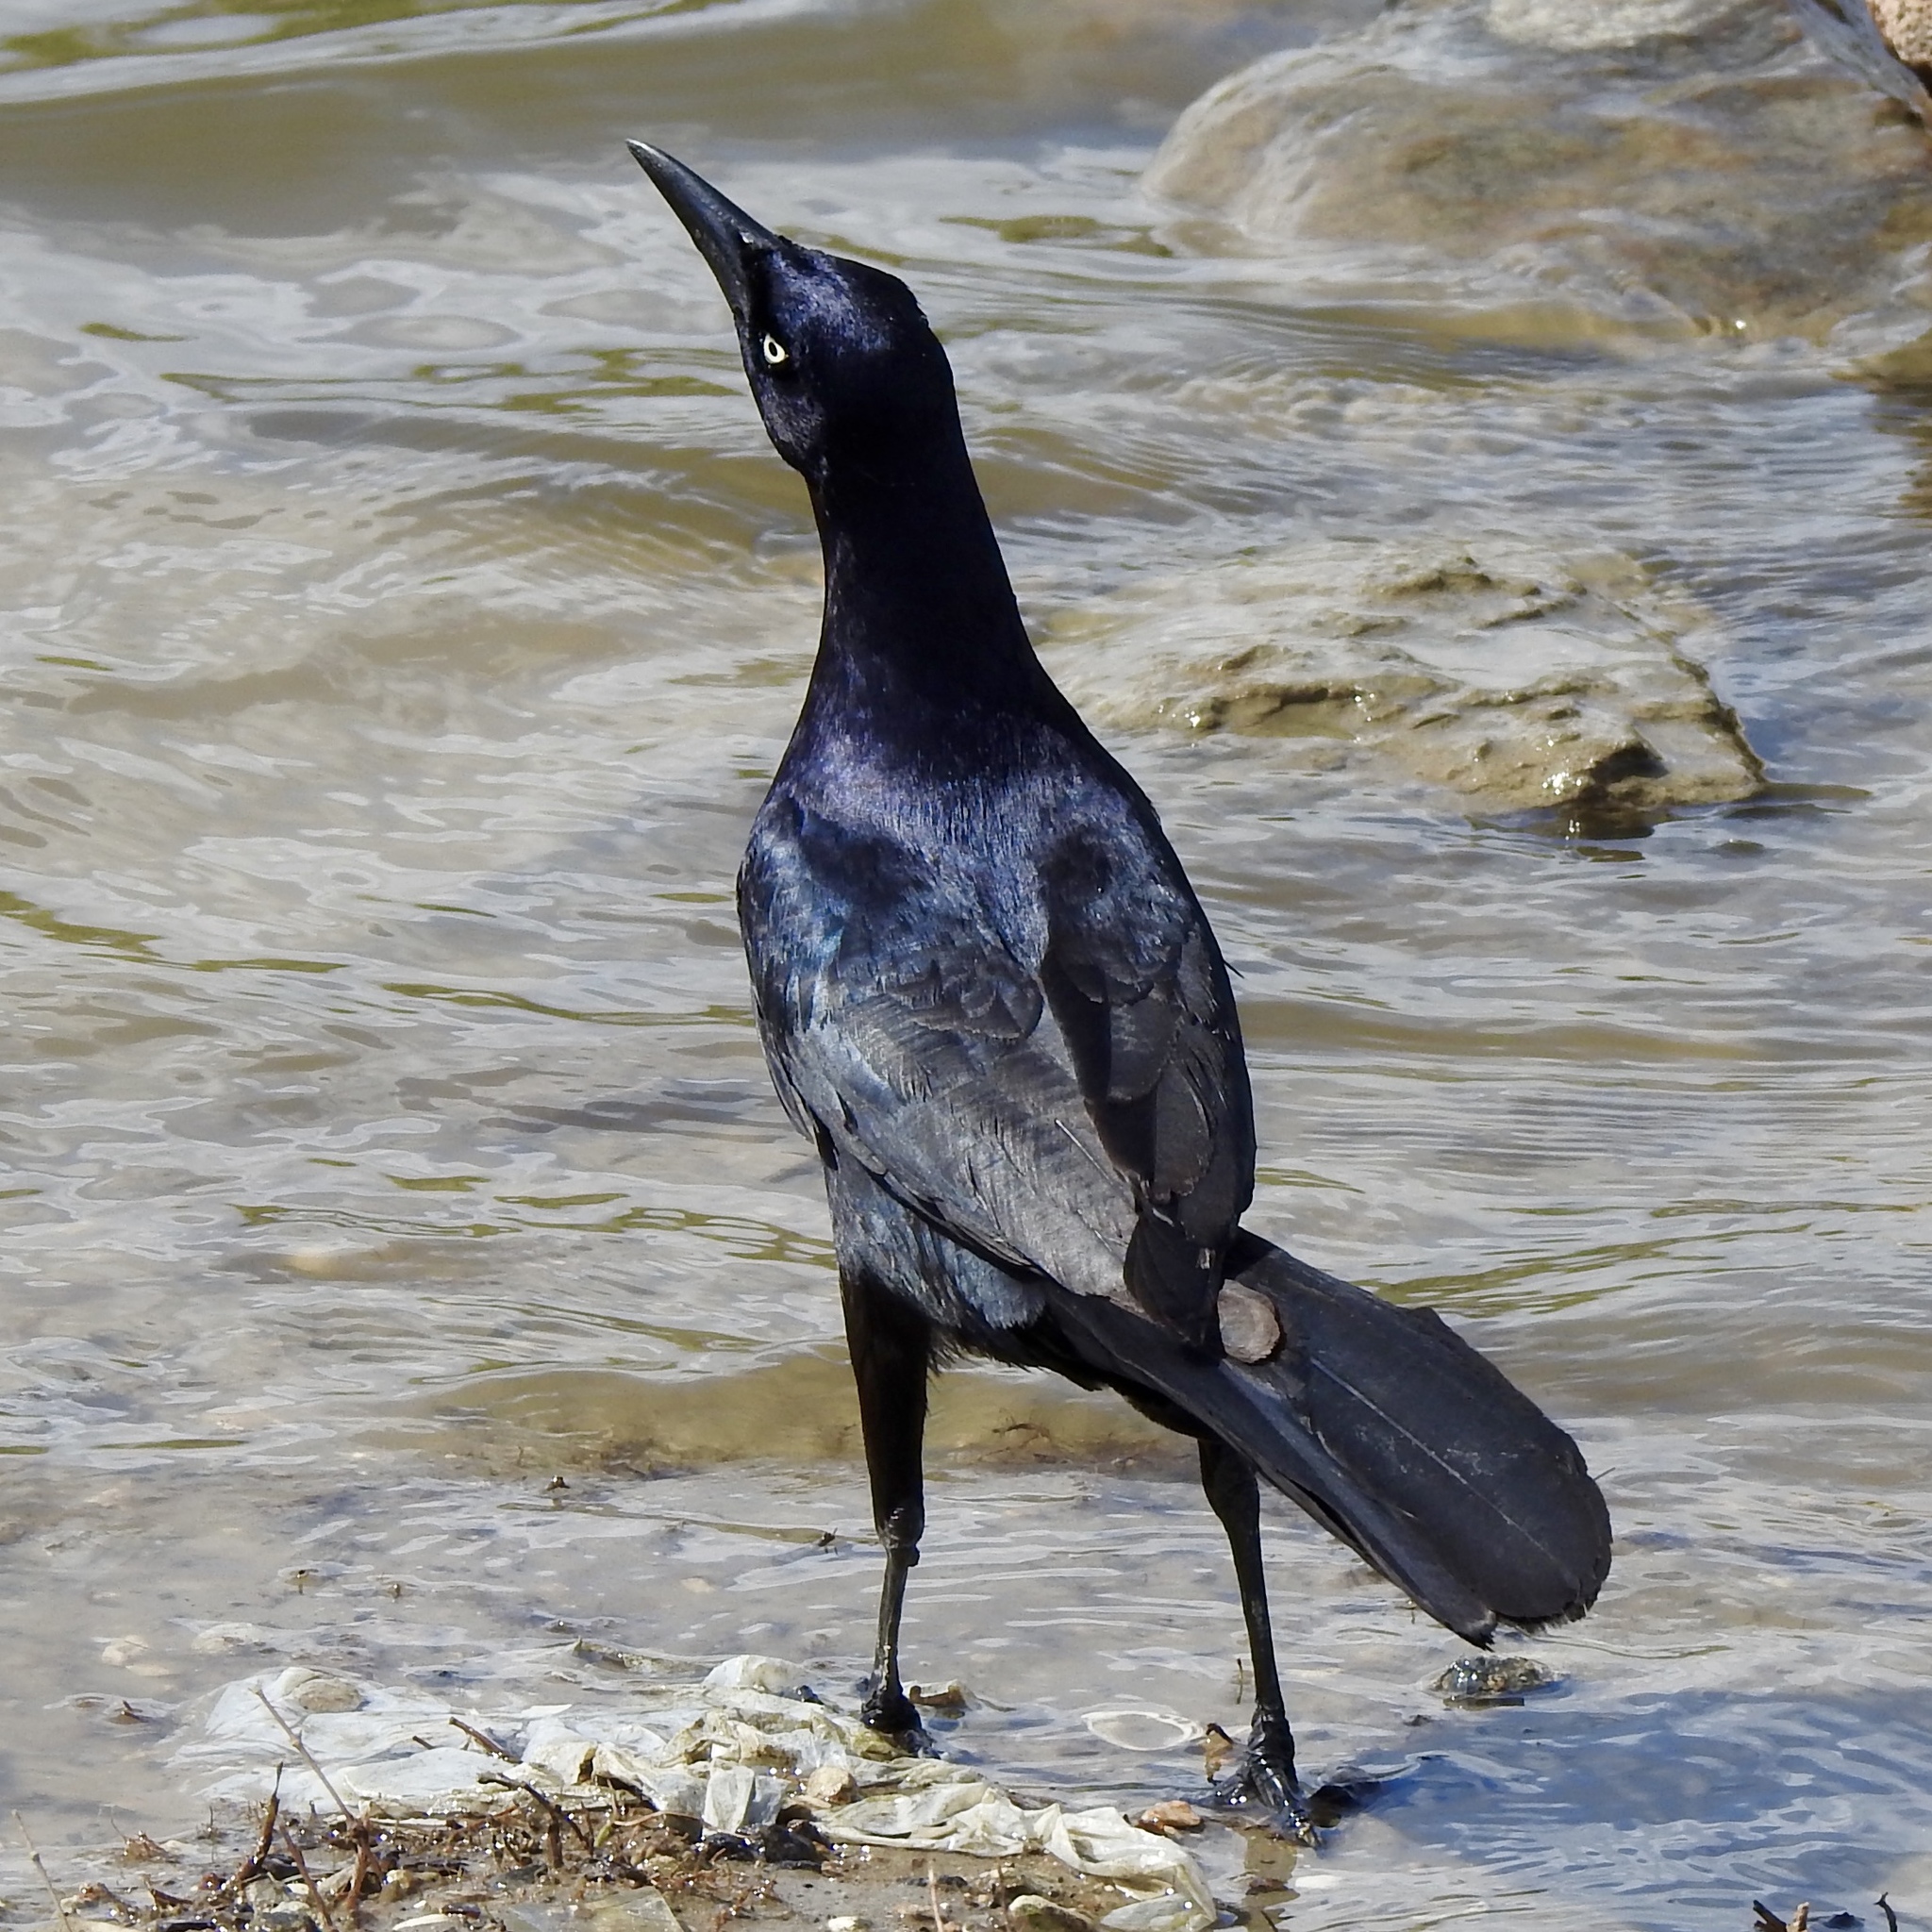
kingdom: Animalia
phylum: Chordata
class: Aves
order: Passeriformes
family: Icteridae
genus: Quiscalus
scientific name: Quiscalus mexicanus
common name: Great-tailed grackle
